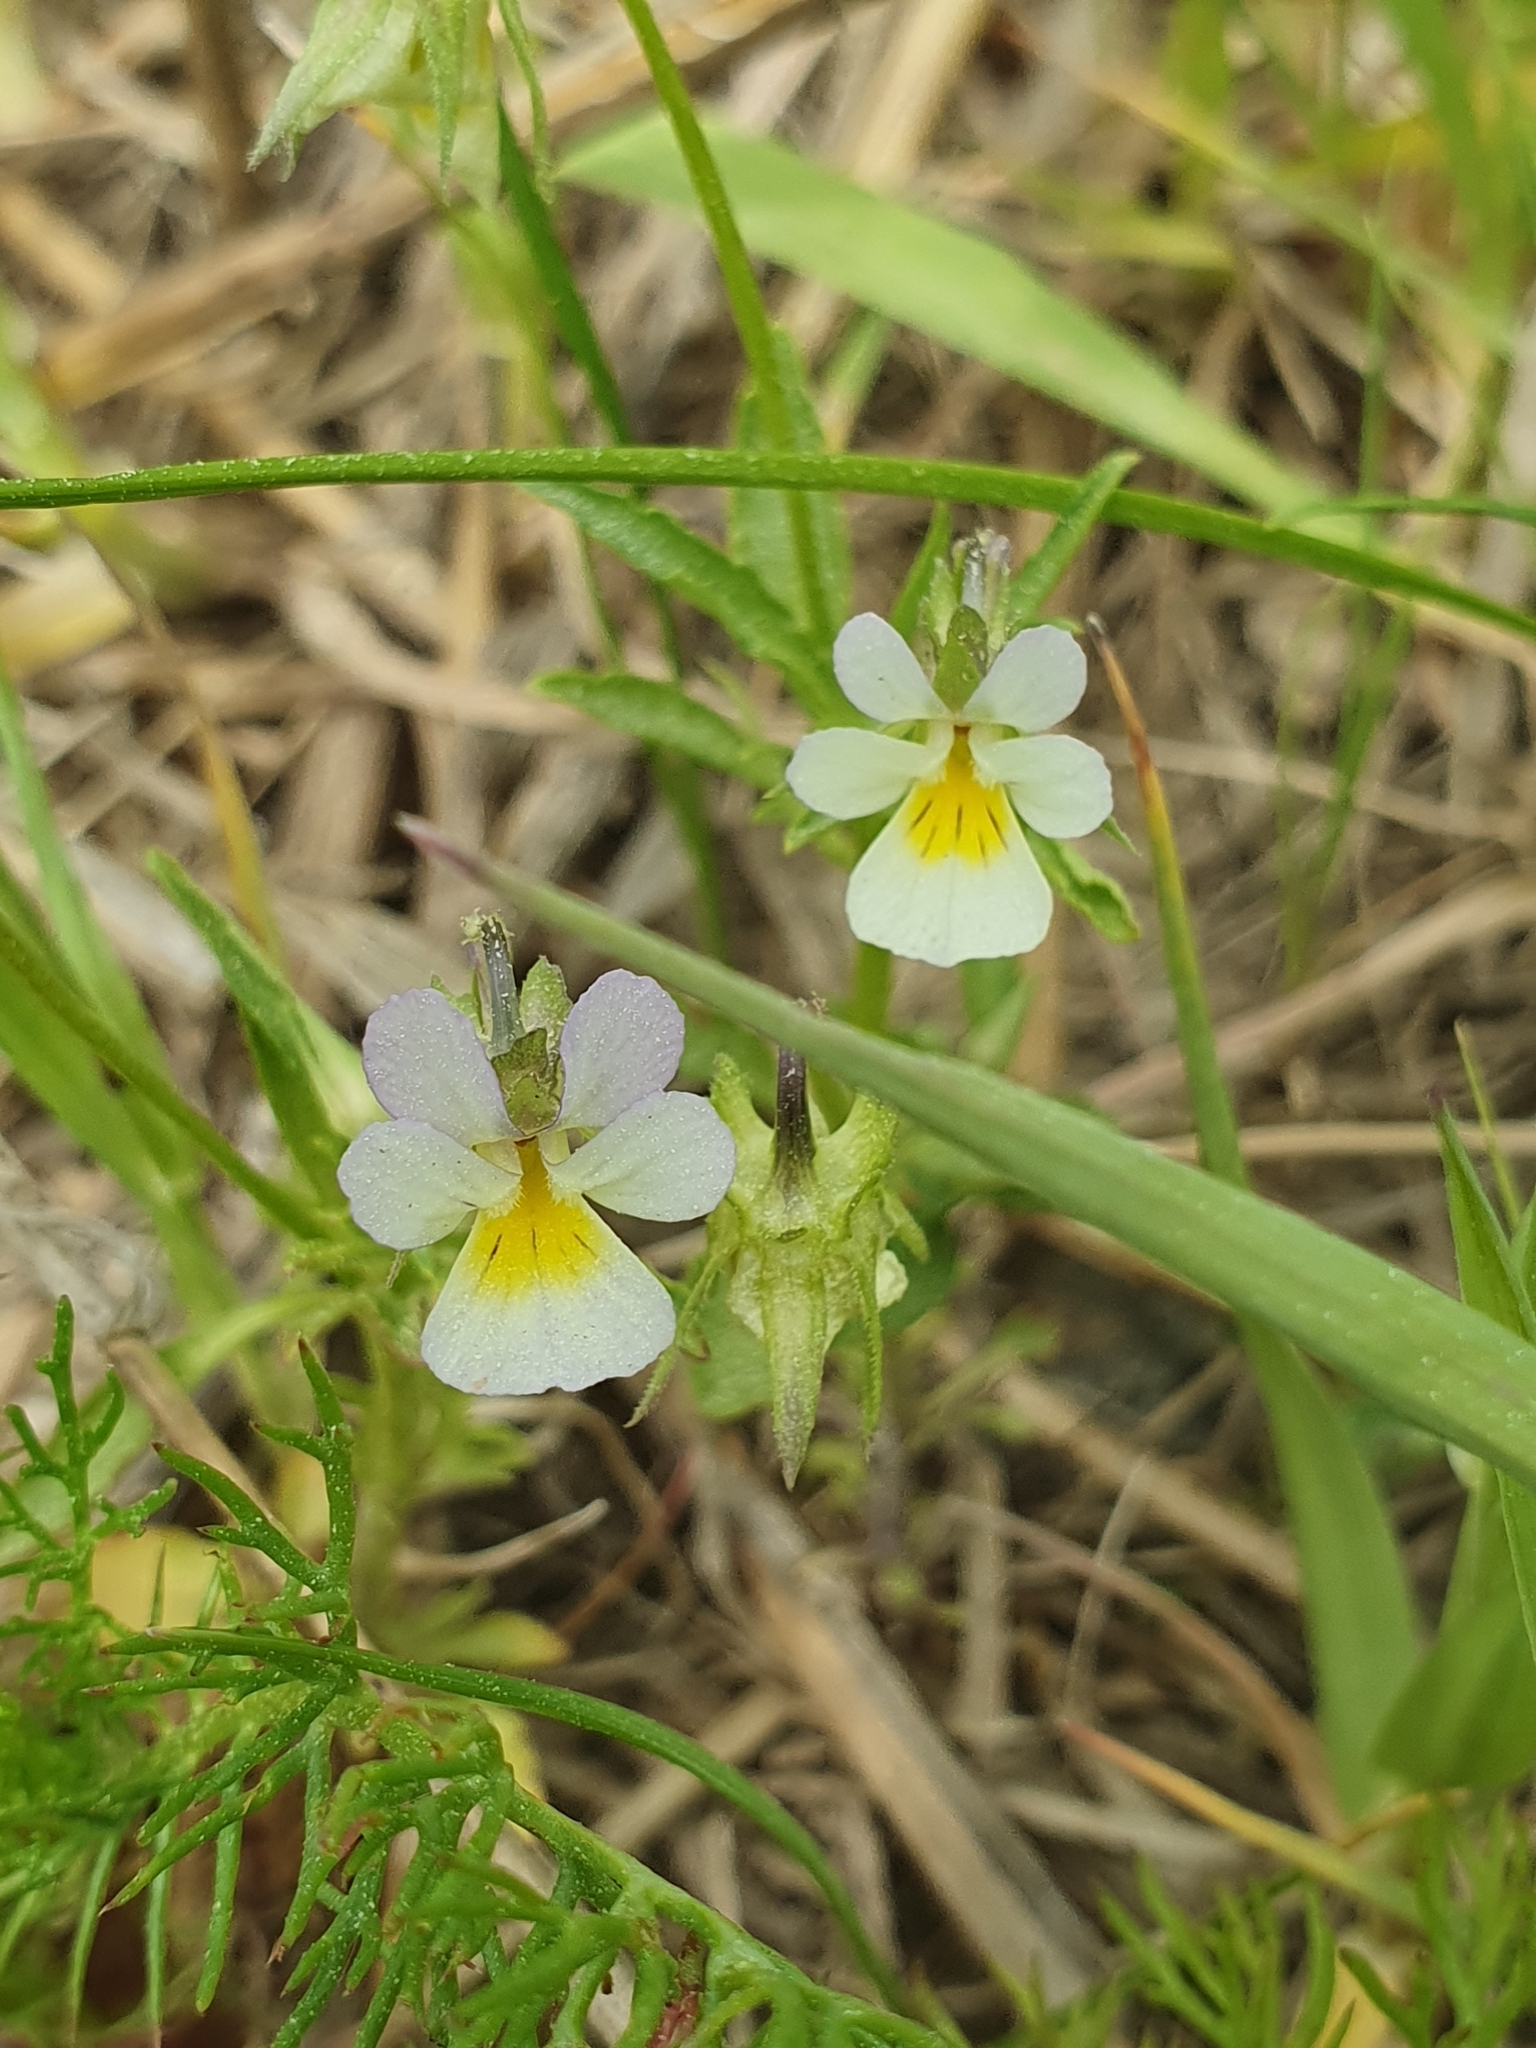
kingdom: Plantae
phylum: Tracheophyta
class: Magnoliopsida
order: Malpighiales
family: Violaceae
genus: Viola
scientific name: Viola arvensis
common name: Field pansy
